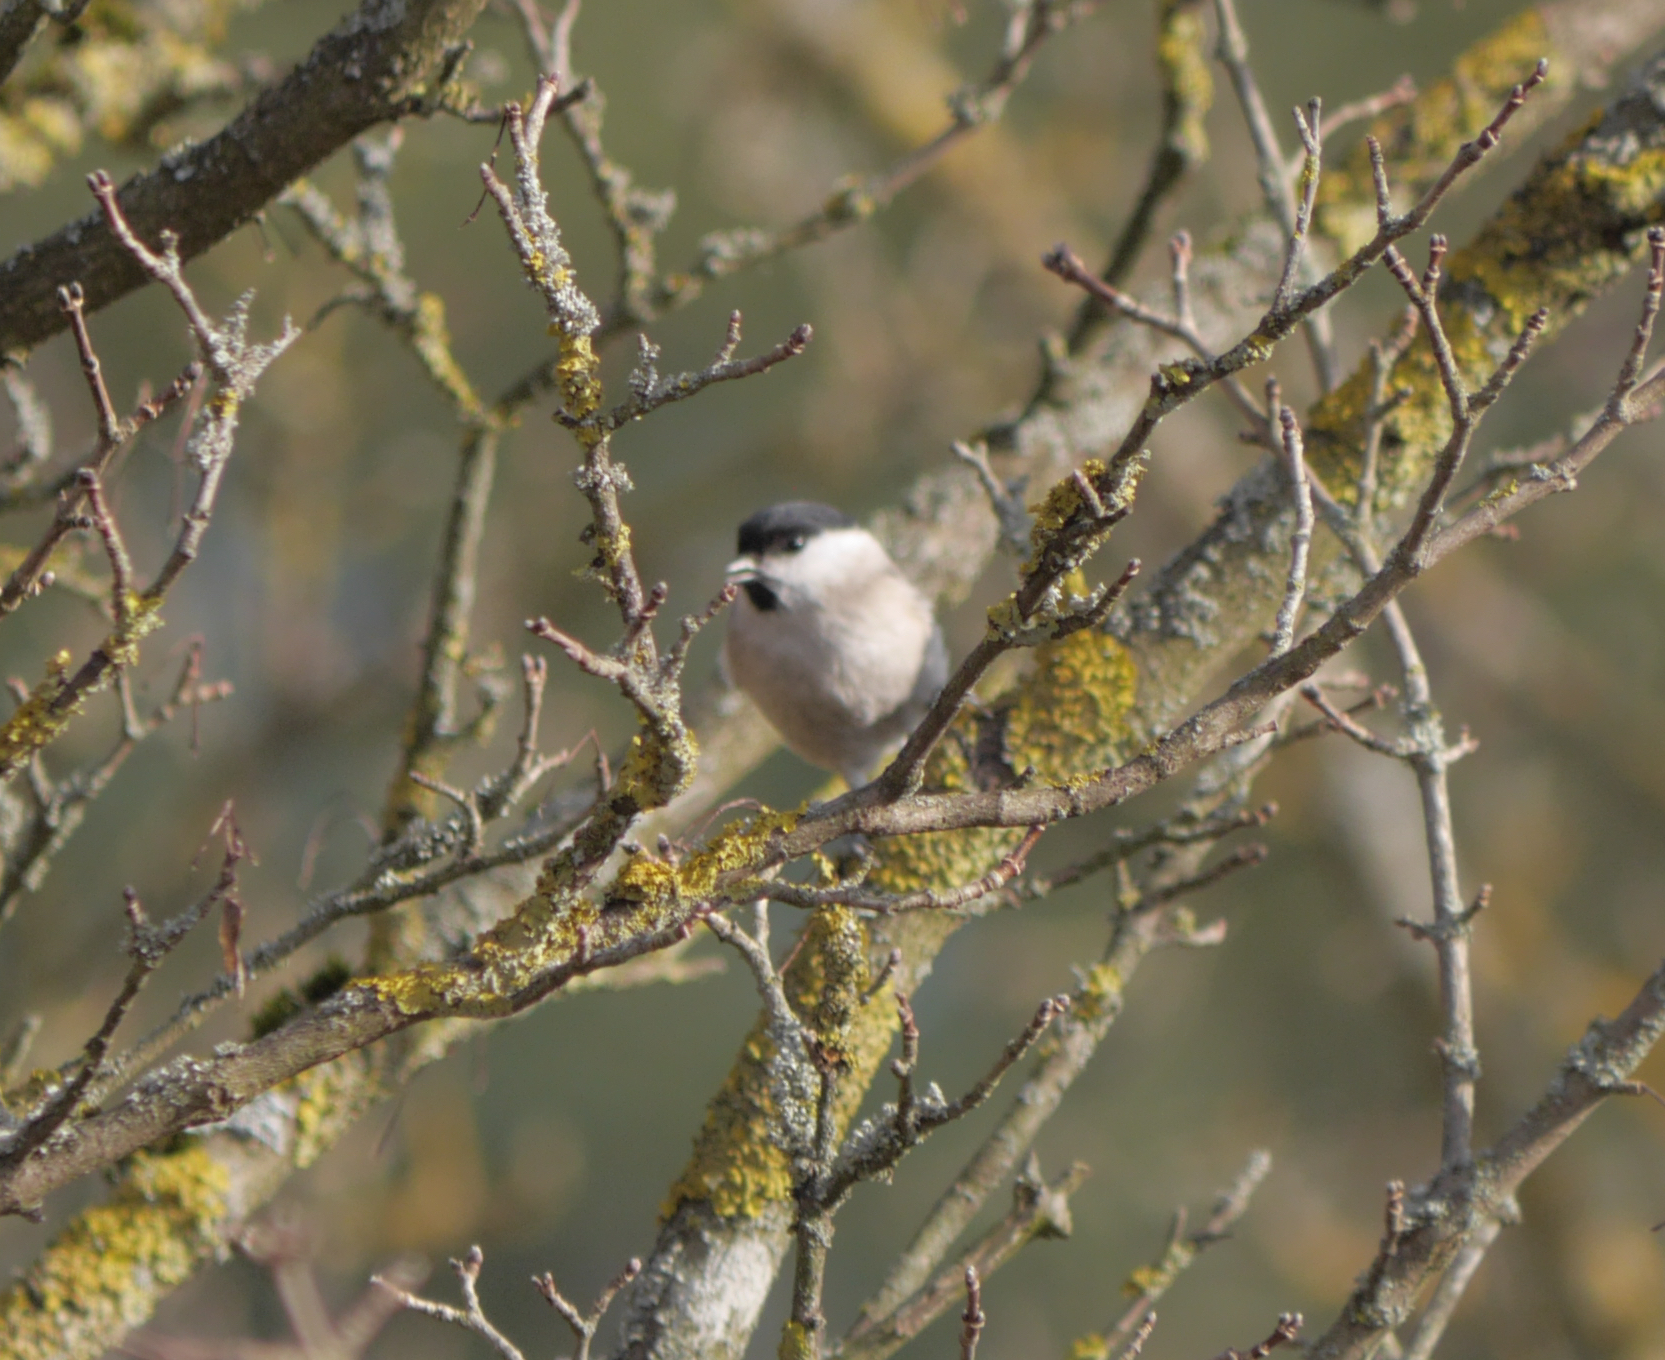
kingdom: Animalia
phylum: Chordata
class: Aves
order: Passeriformes
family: Paridae
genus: Poecile
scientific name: Poecile palustris
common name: Marsh tit
